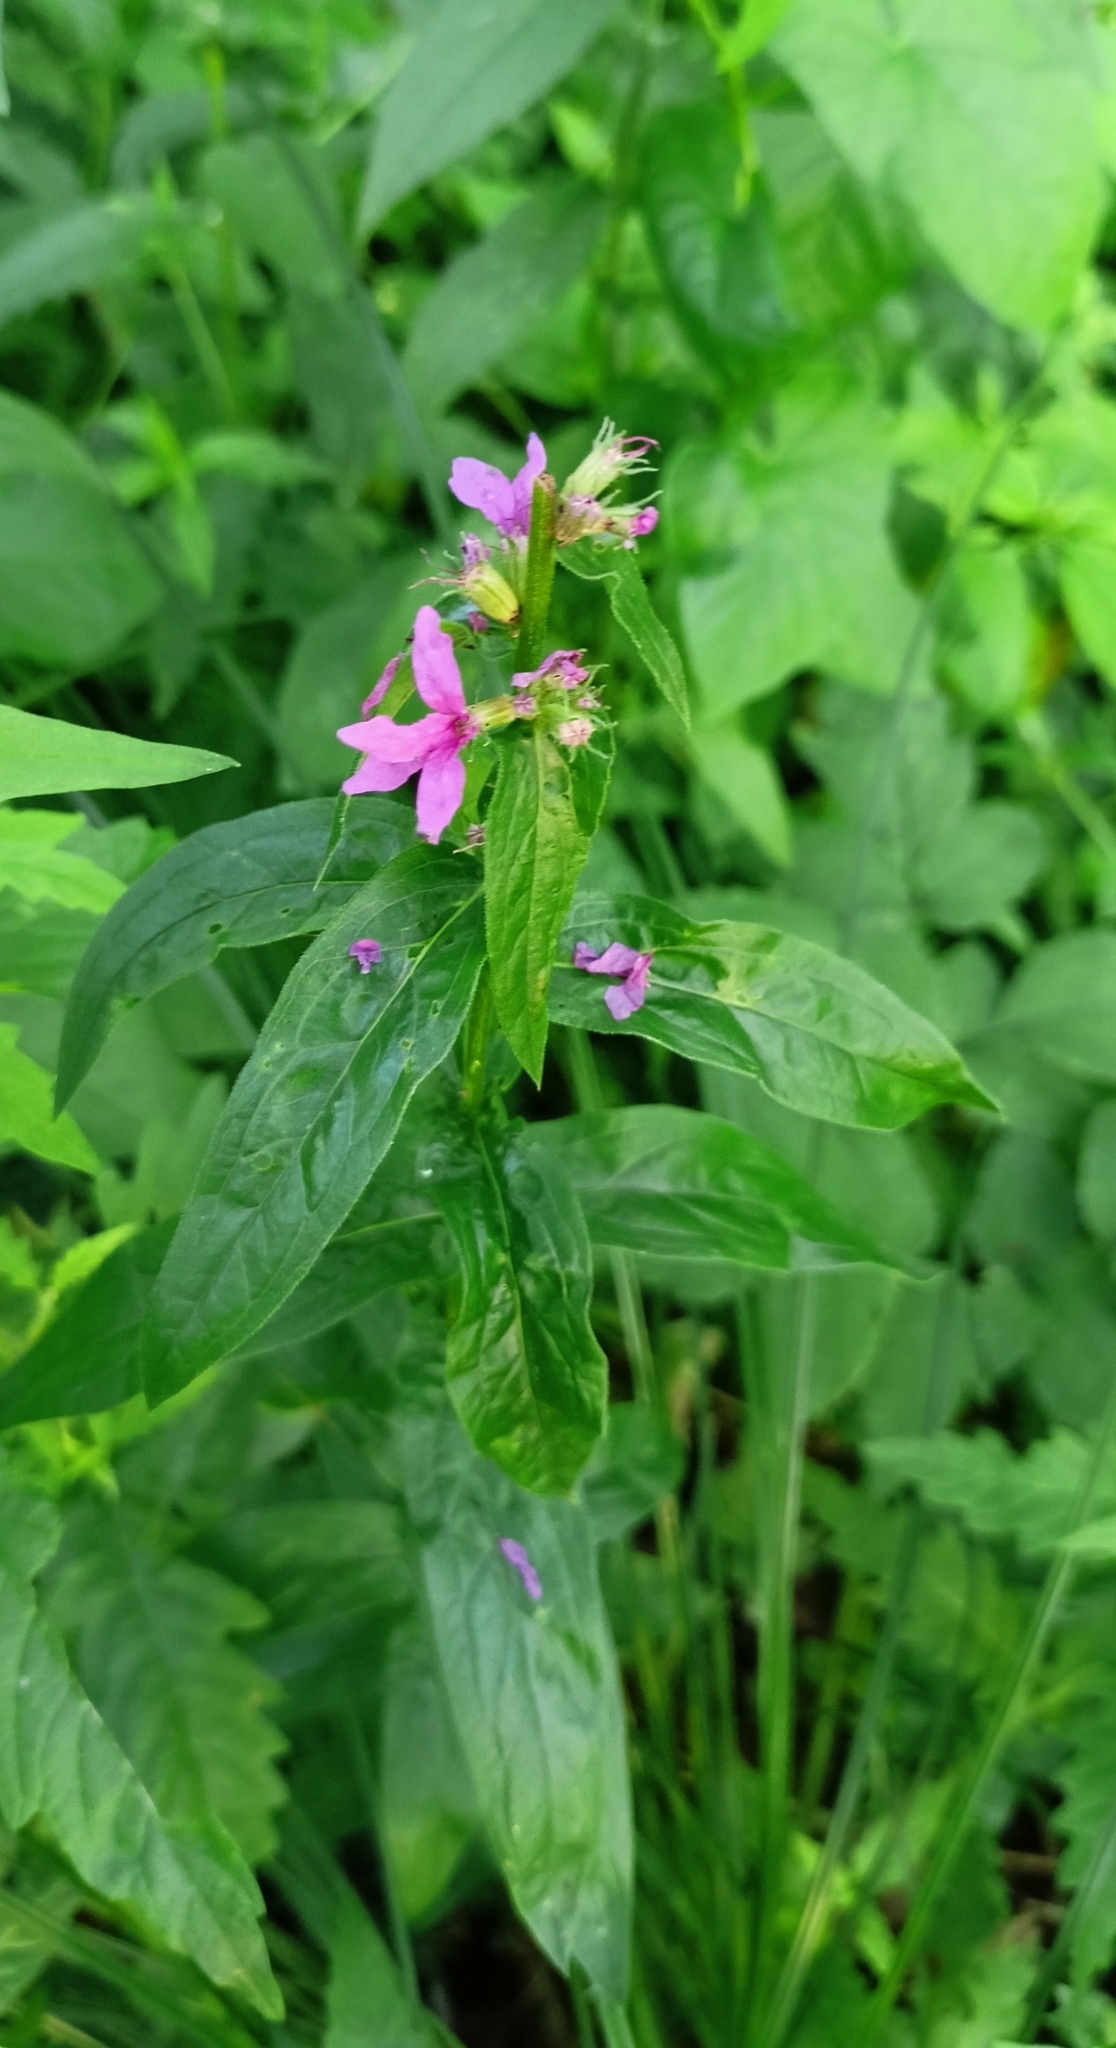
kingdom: Plantae
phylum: Tracheophyta
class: Magnoliopsida
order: Myrtales
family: Lythraceae
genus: Lythrum
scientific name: Lythrum salicaria
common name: Purple loosestrife
